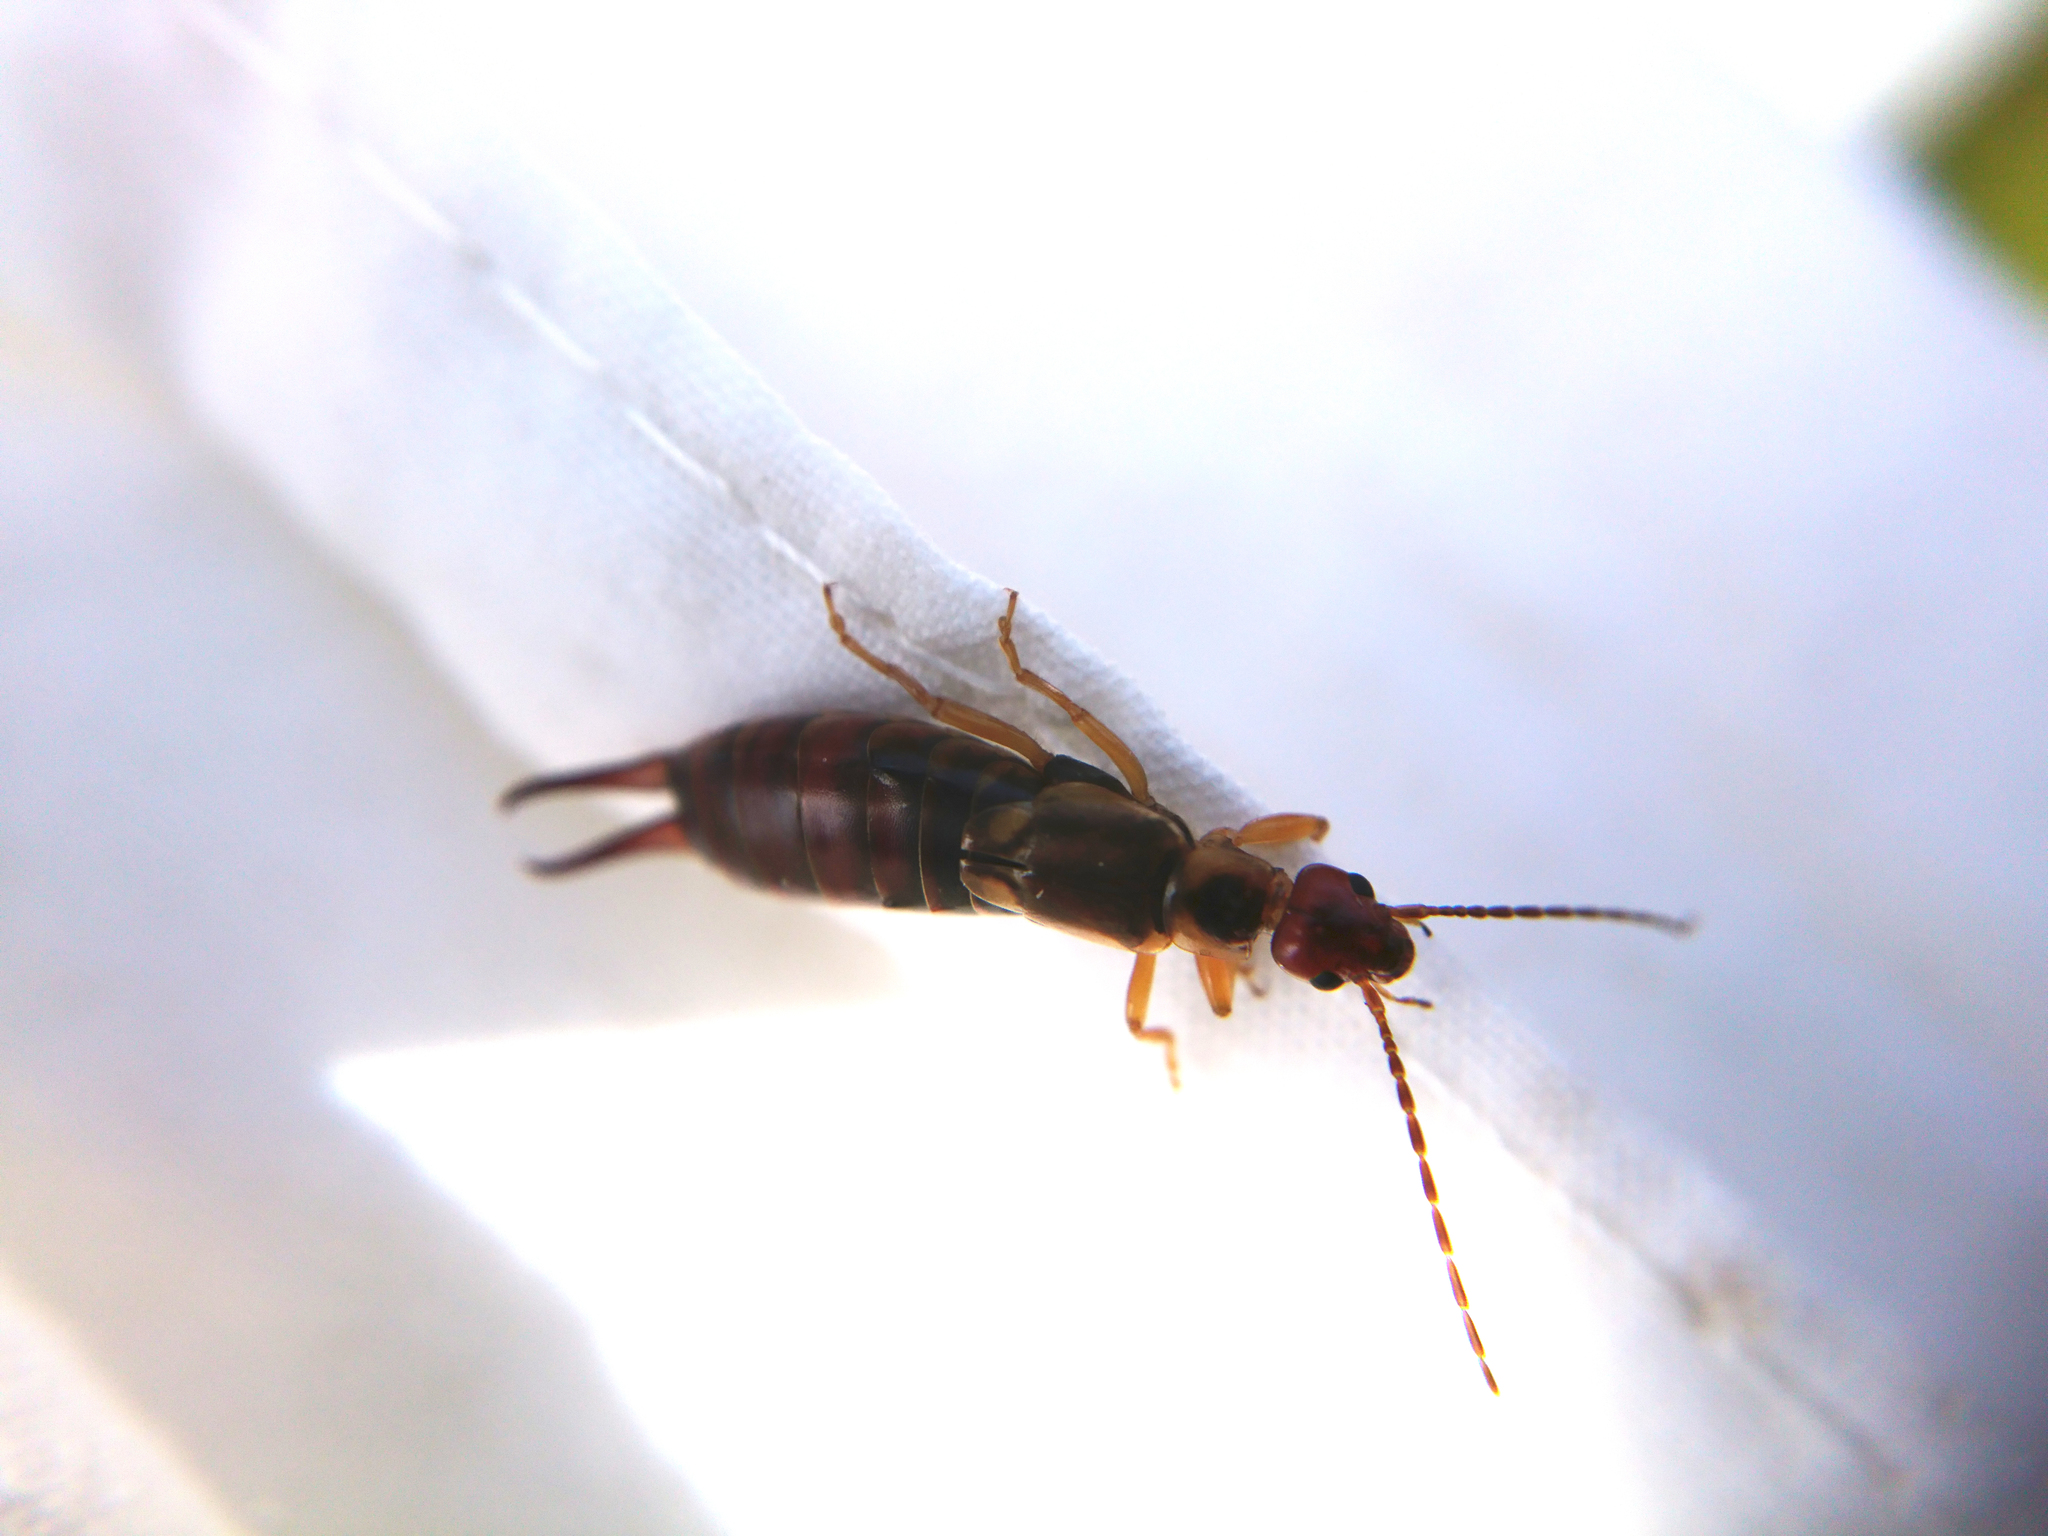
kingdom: Animalia
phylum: Arthropoda
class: Insecta
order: Dermaptera
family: Forficulidae
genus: Forficula
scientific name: Forficula
